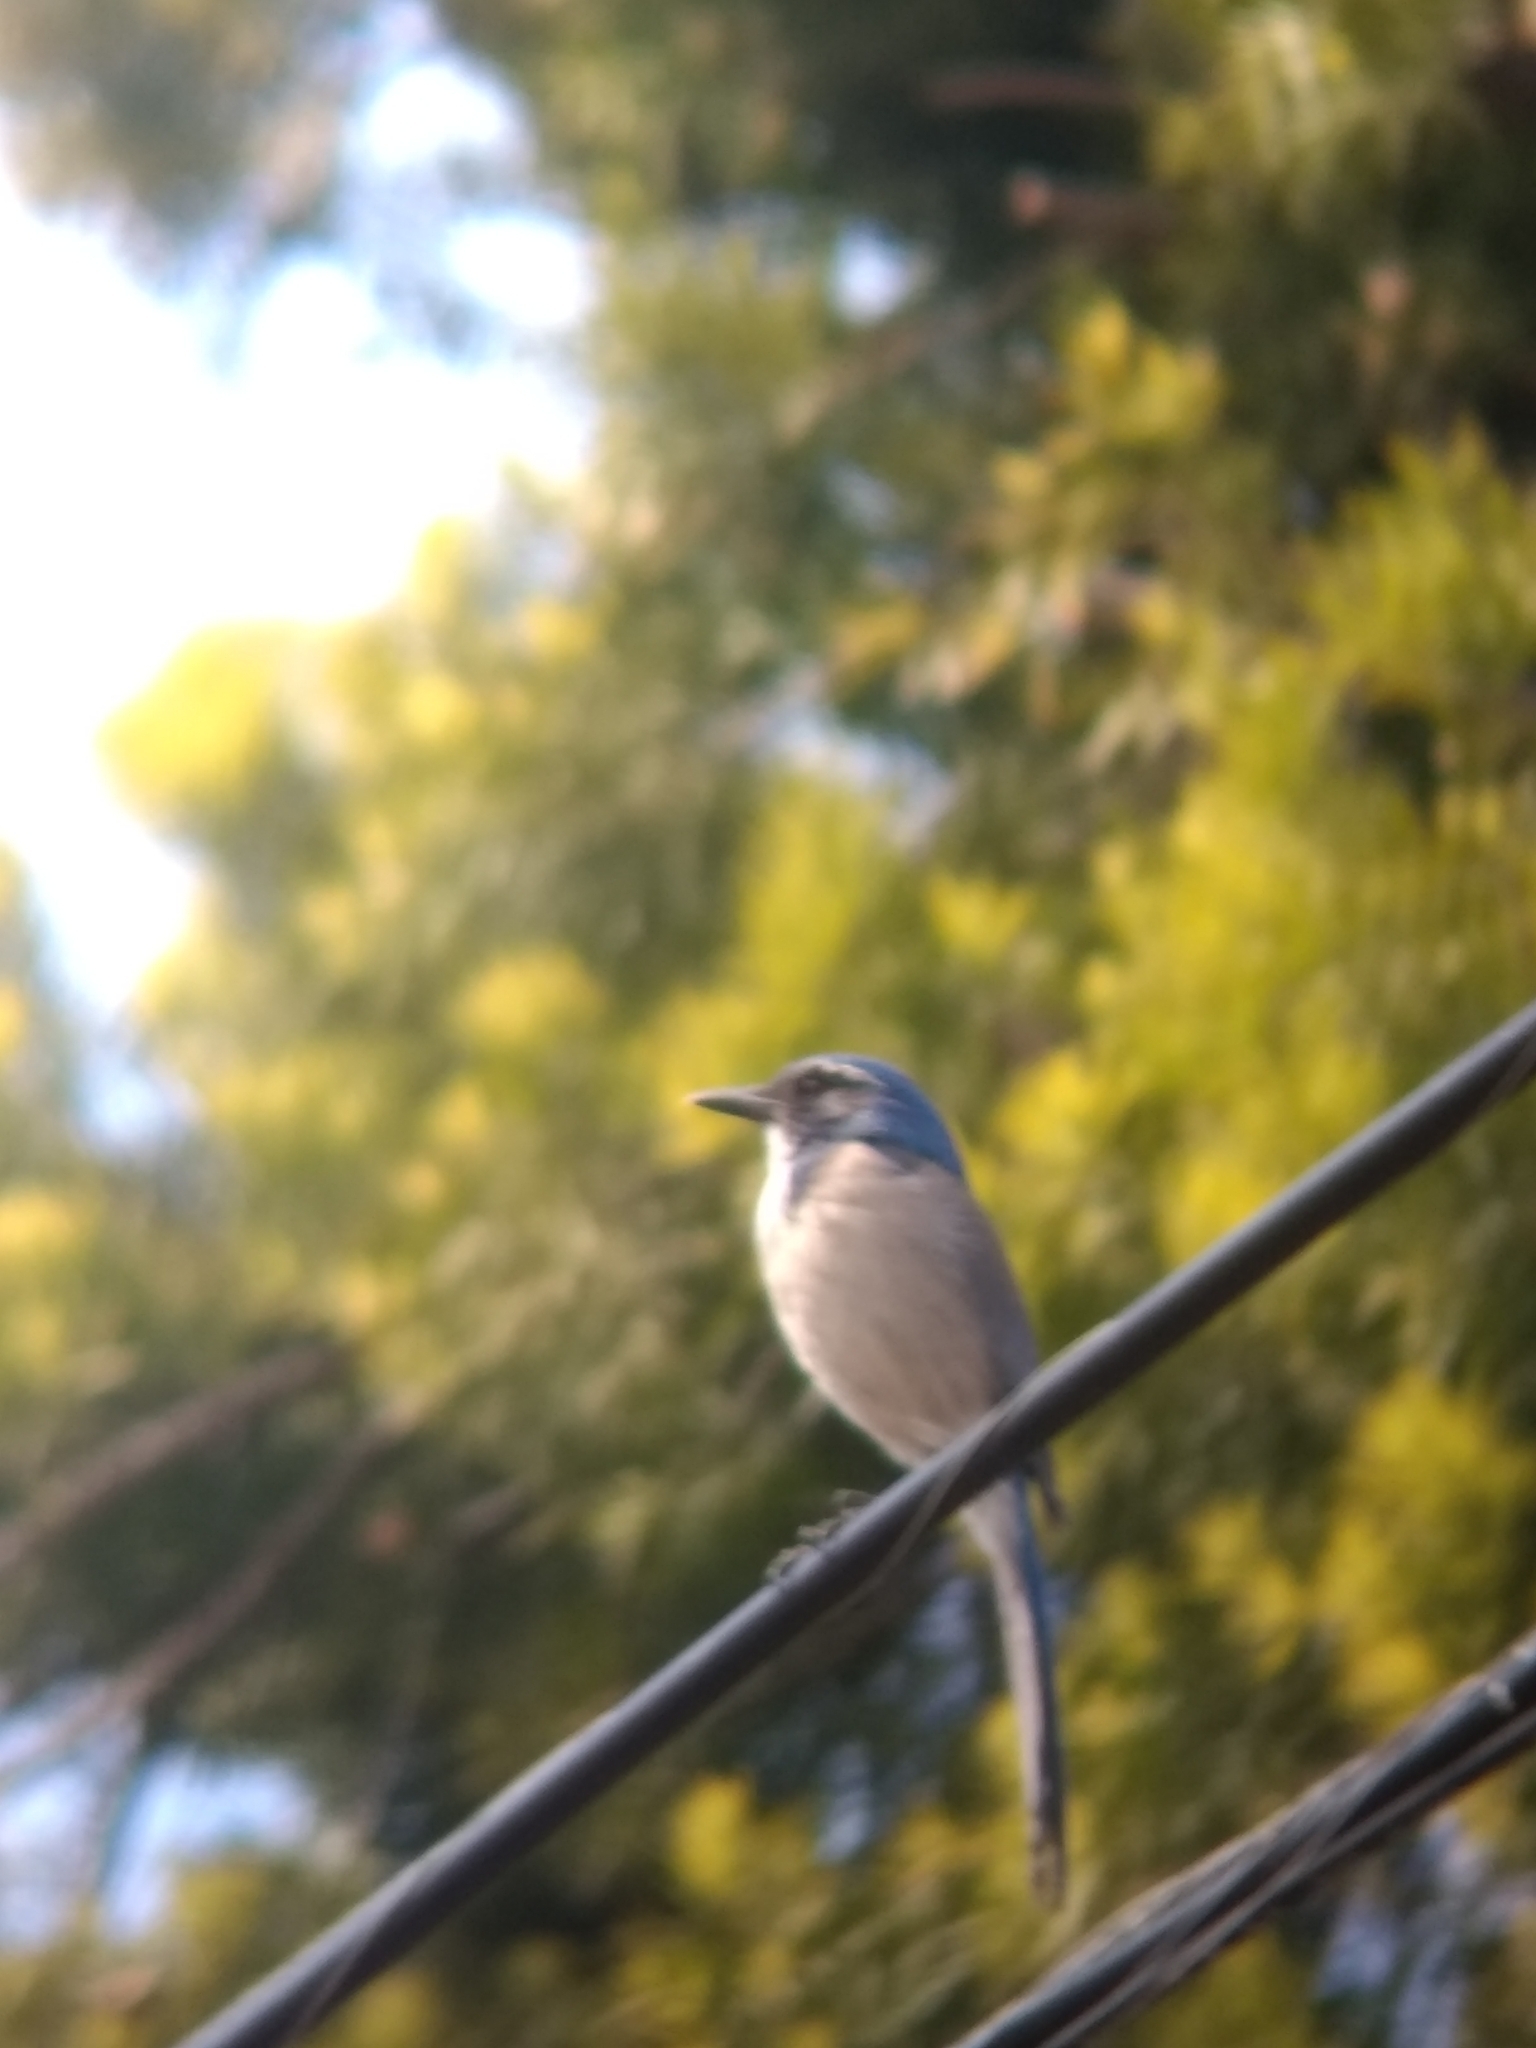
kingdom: Animalia
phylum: Chordata
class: Aves
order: Passeriformes
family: Corvidae
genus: Aphelocoma
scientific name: Aphelocoma californica
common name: California scrub-jay
